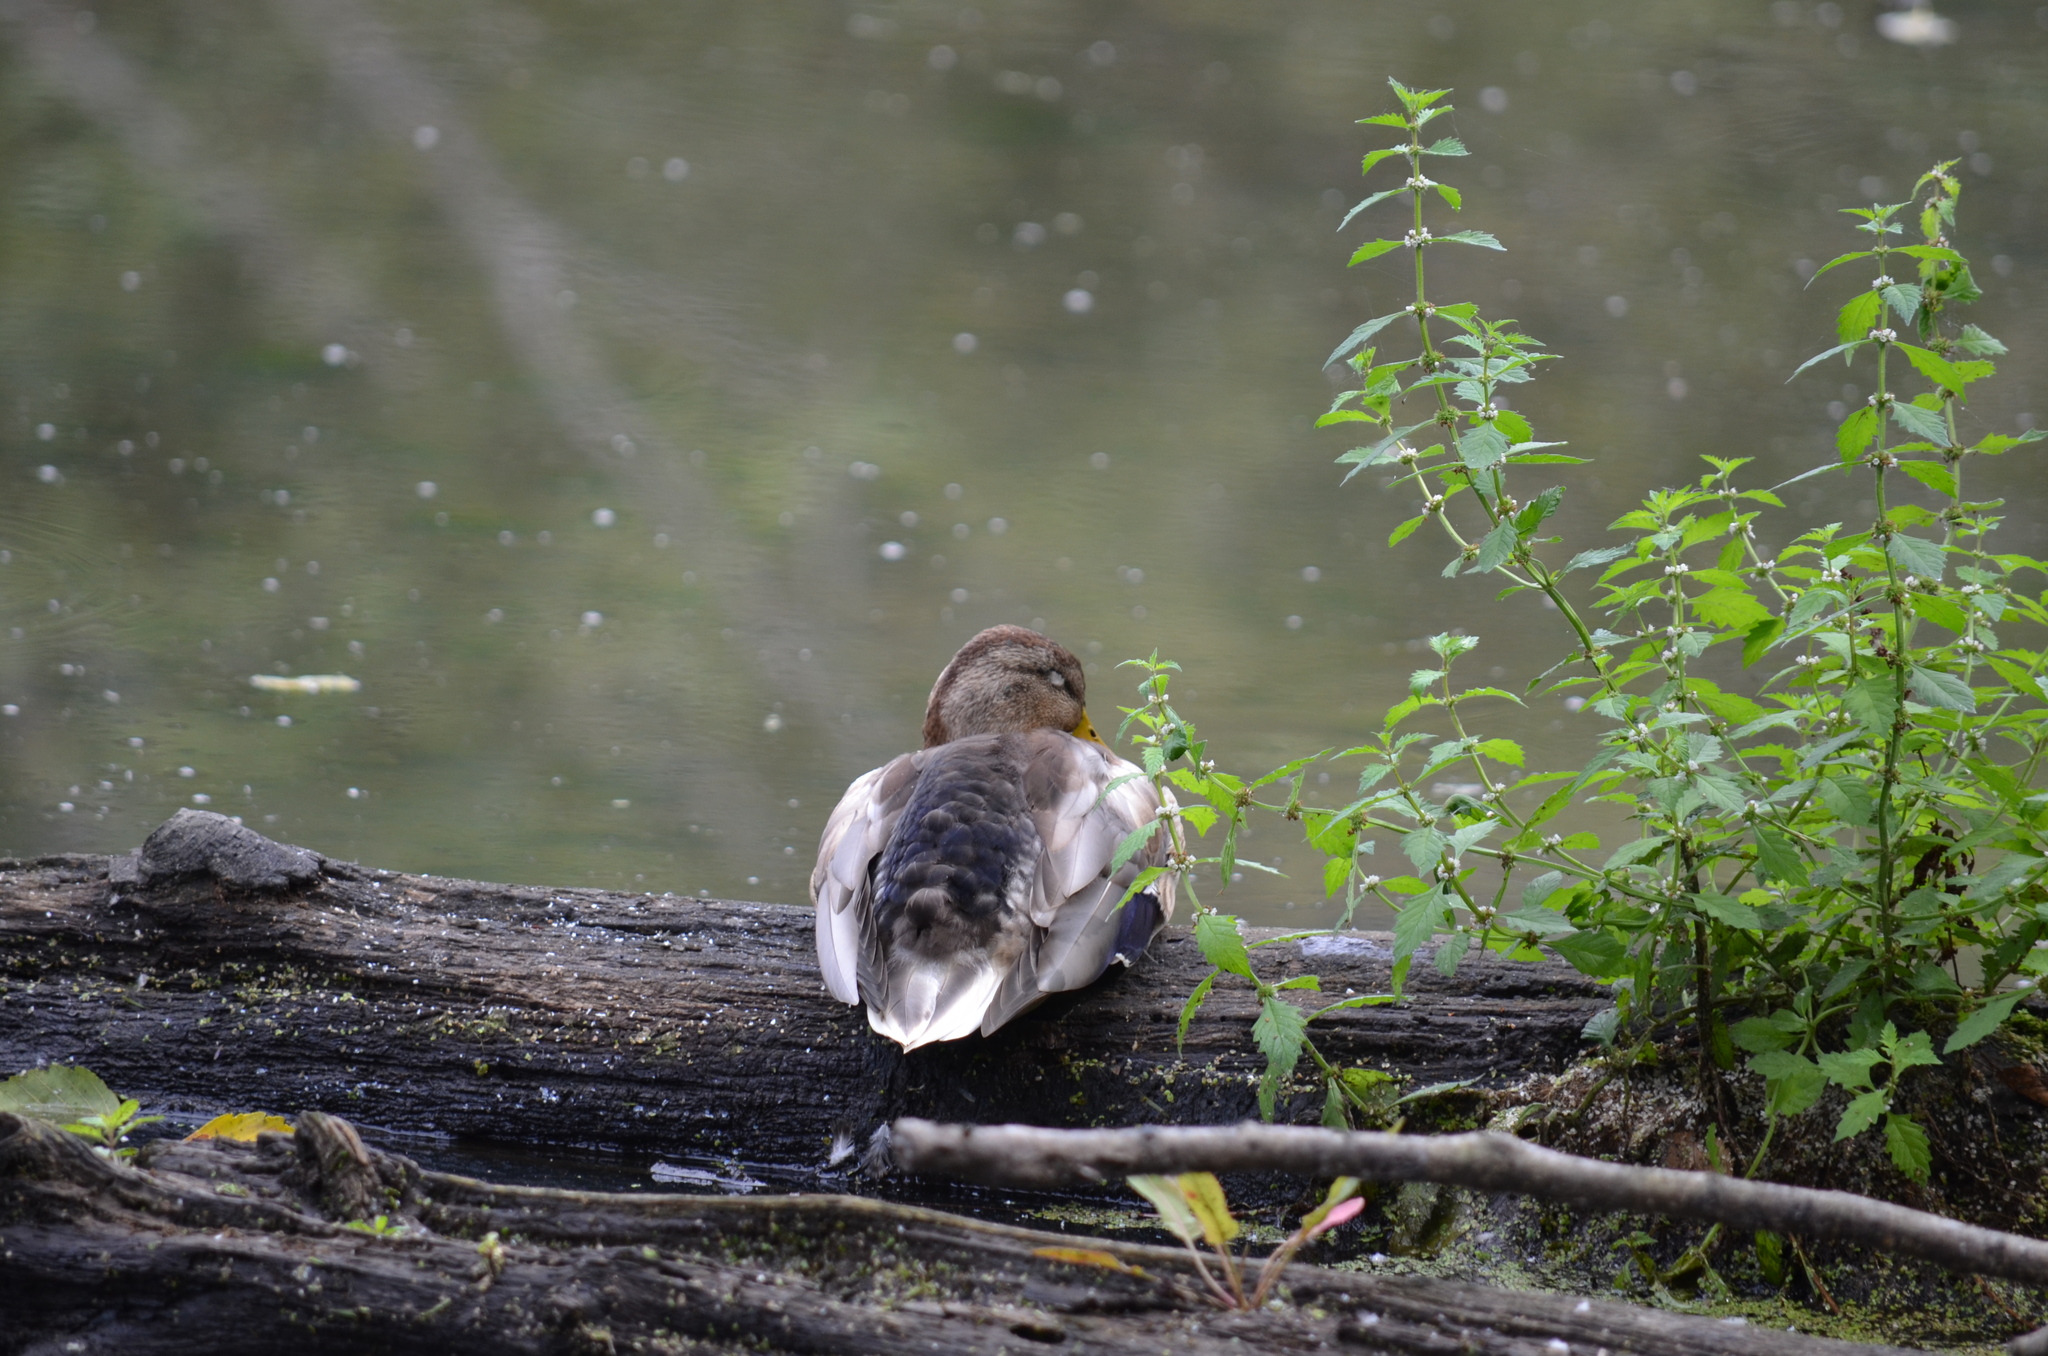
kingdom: Animalia
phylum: Chordata
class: Aves
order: Anseriformes
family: Anatidae
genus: Anas
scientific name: Anas platyrhynchos
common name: Mallard
